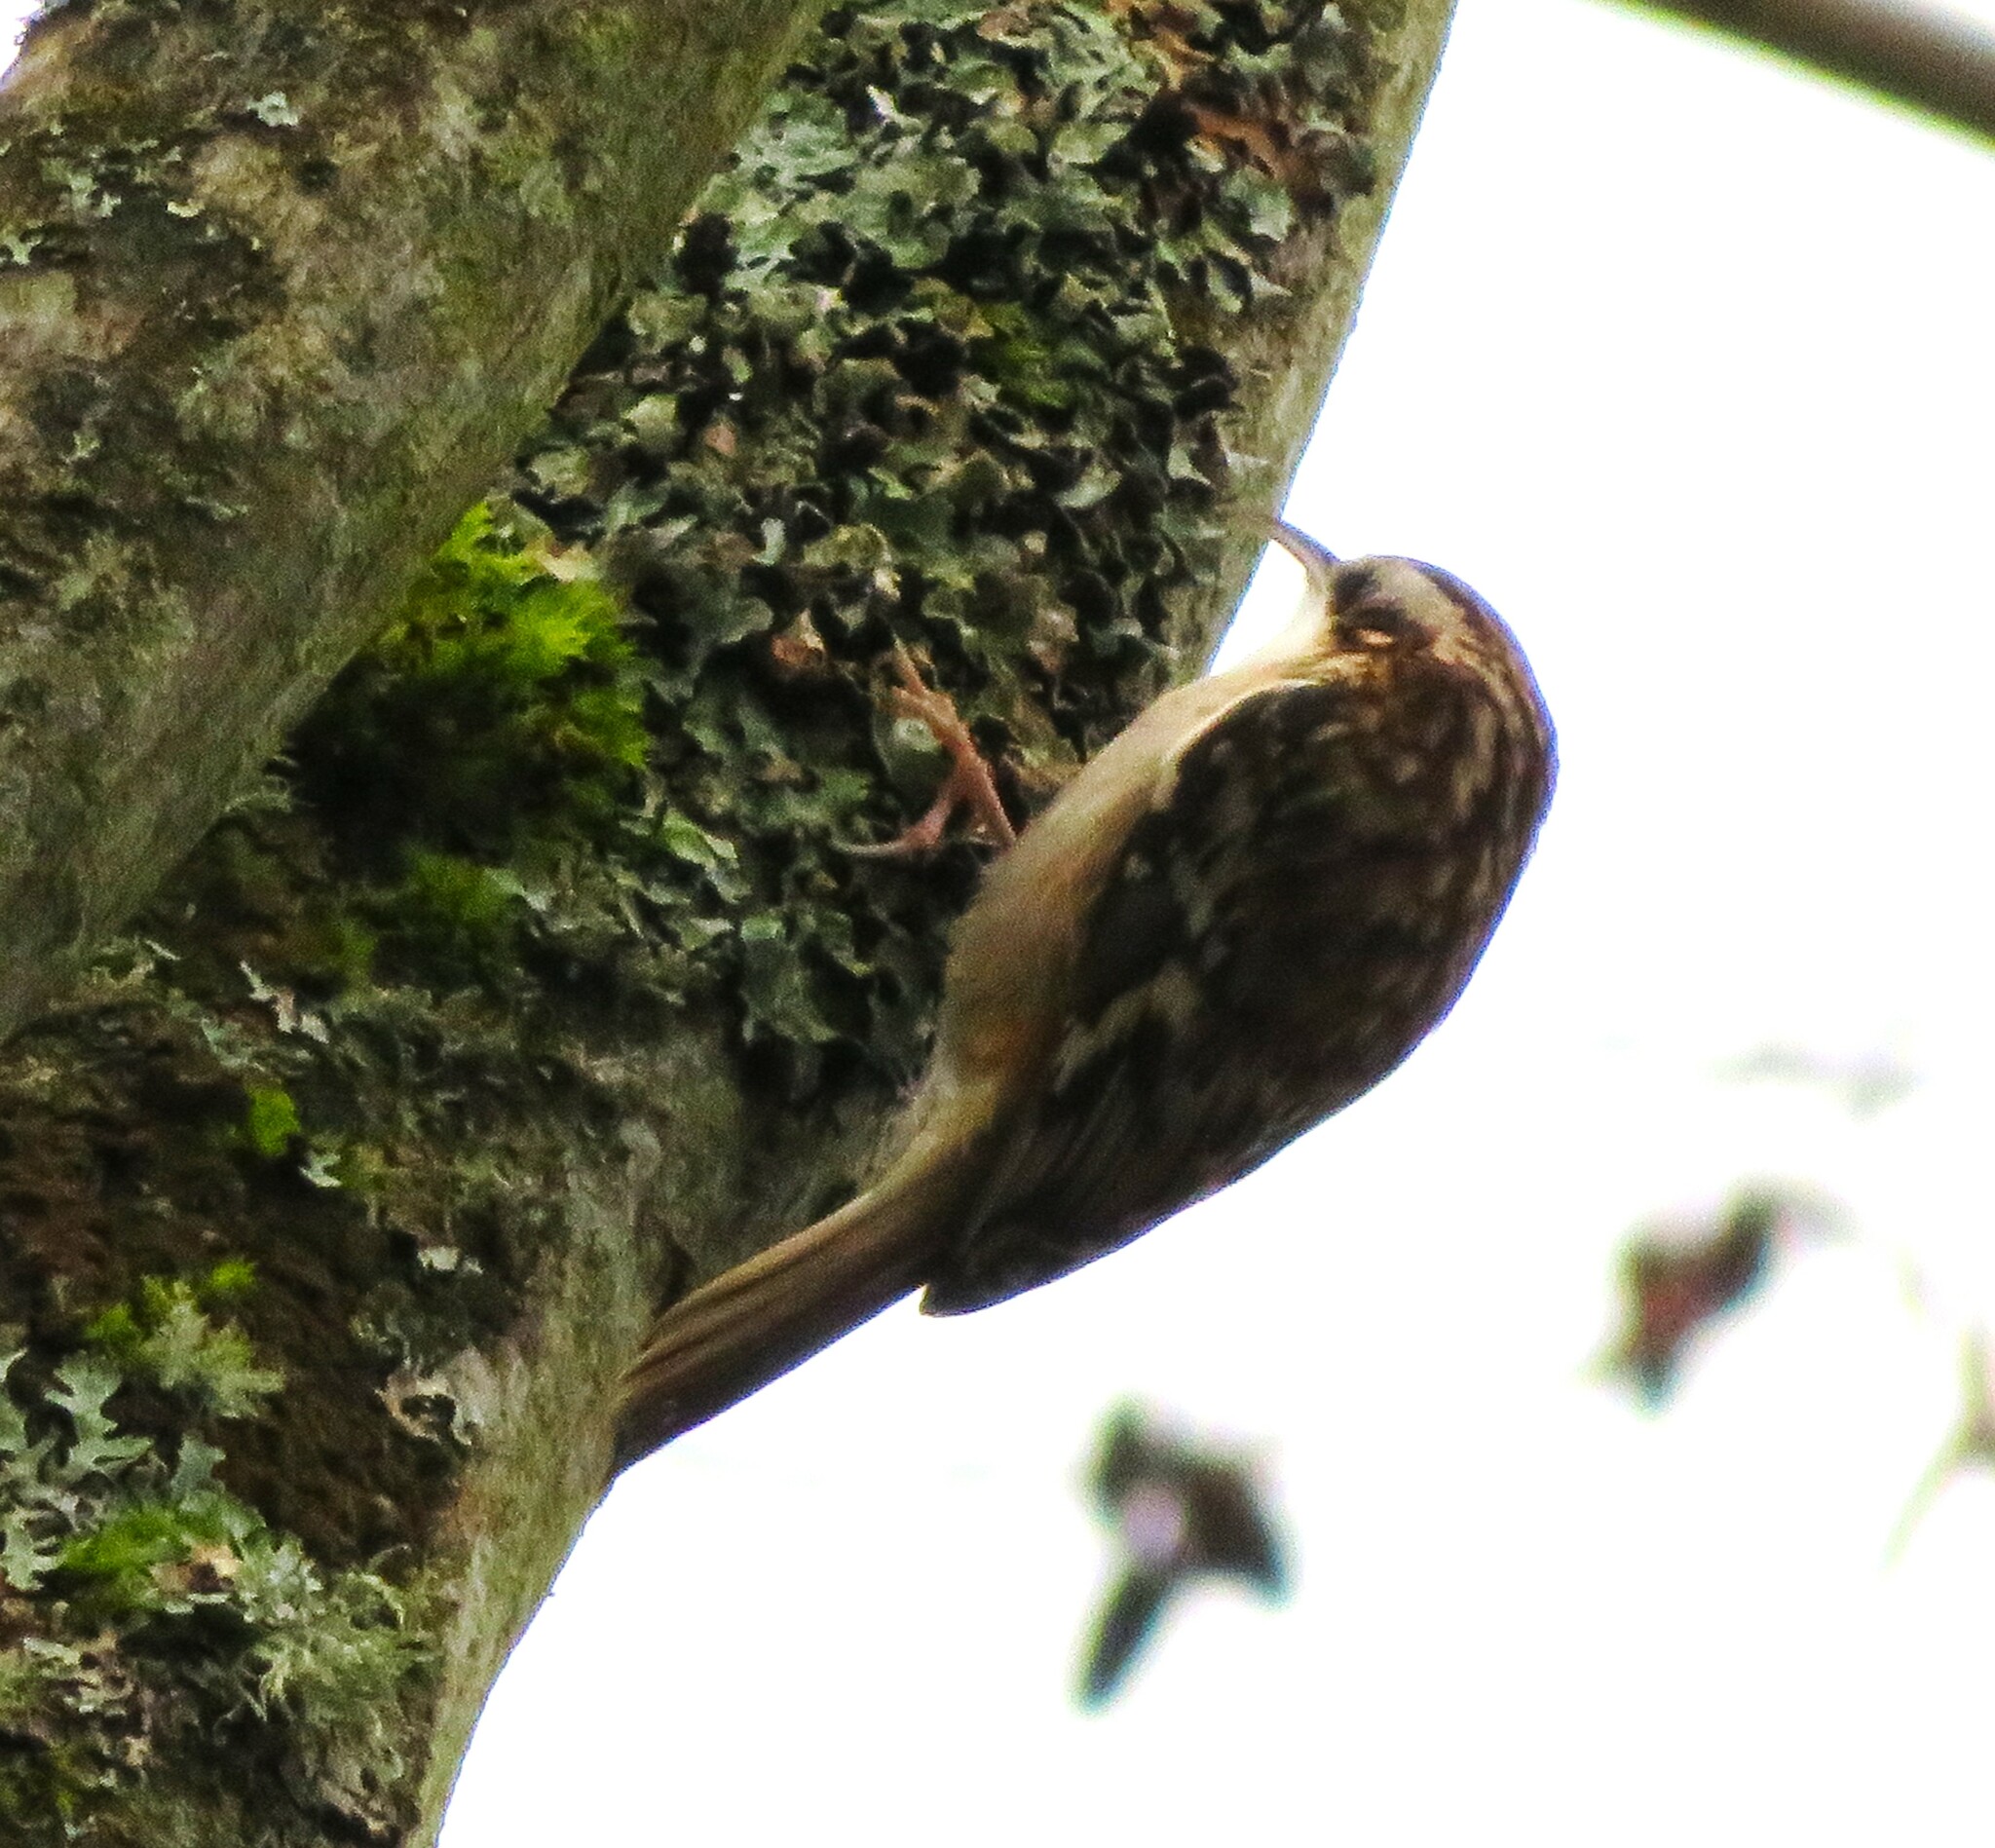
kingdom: Animalia
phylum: Chordata
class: Aves
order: Passeriformes
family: Certhiidae
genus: Certhia
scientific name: Certhia americana
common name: Brown creeper
